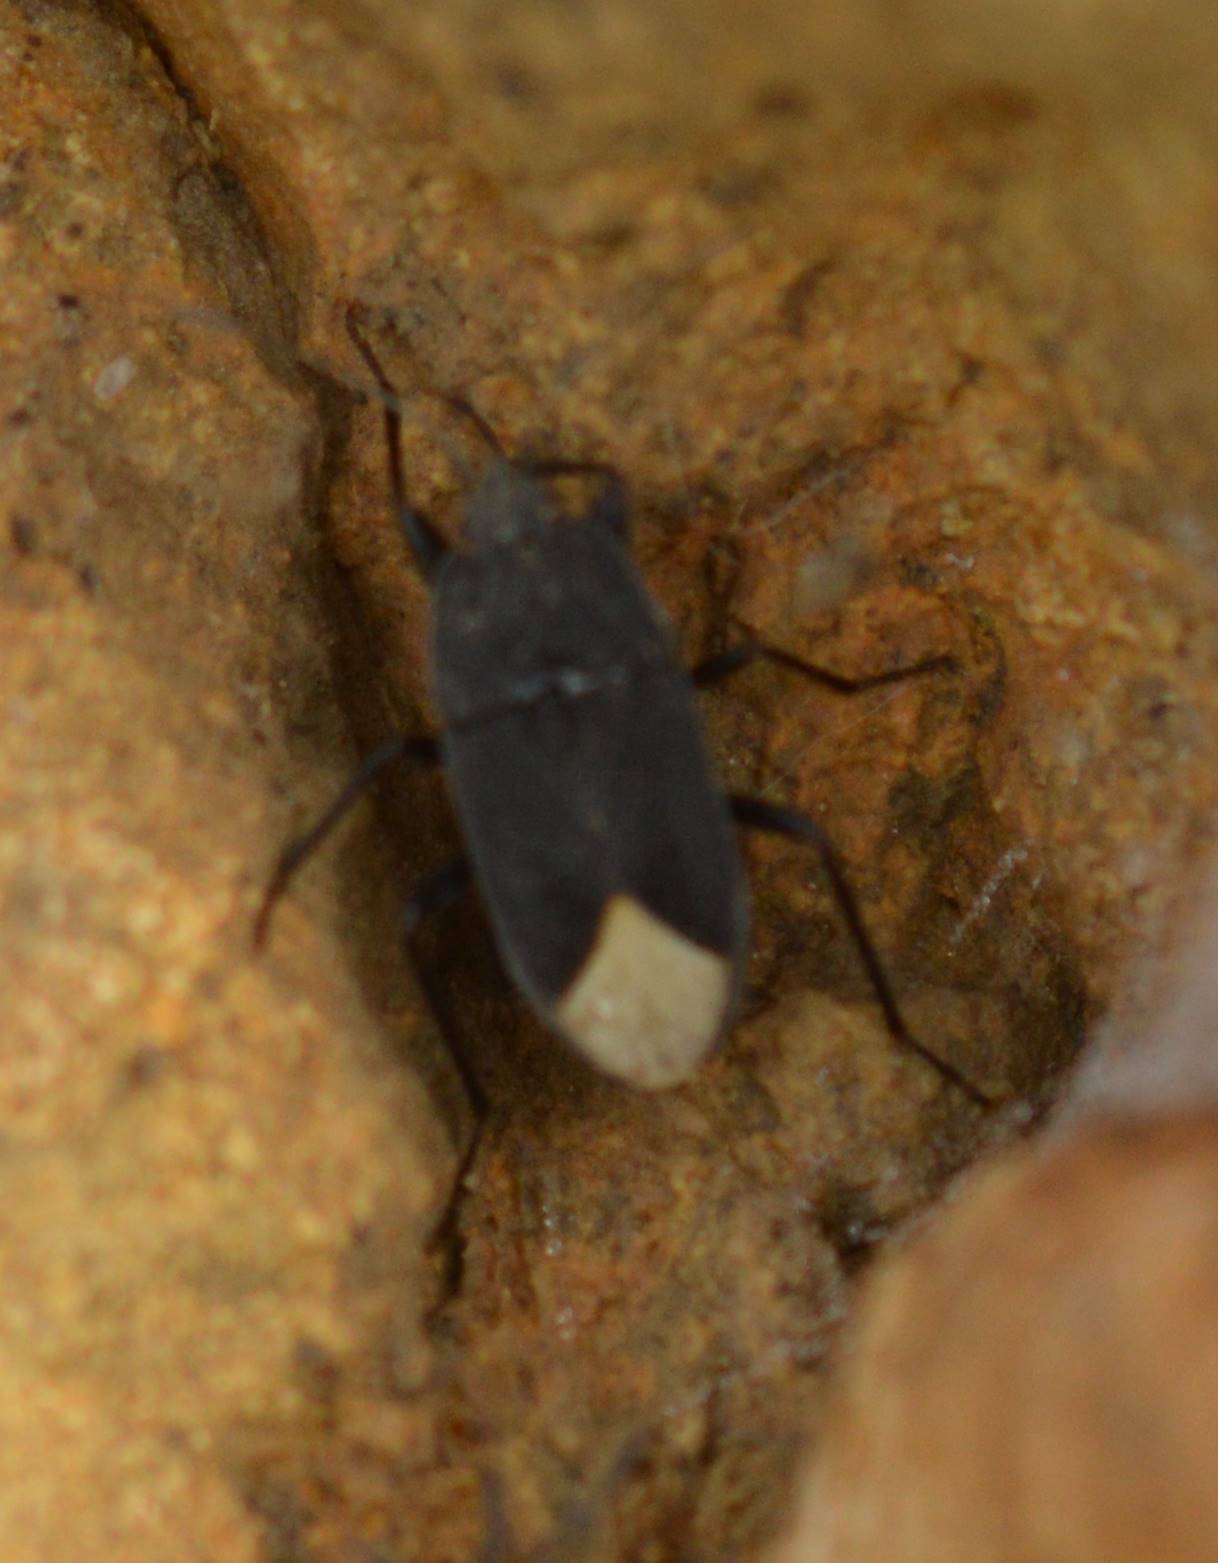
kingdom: Animalia
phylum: Arthropoda
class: Insecta
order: Hemiptera
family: Rhyparochromidae
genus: Microtomideus
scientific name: Microtomideus leucodermus
